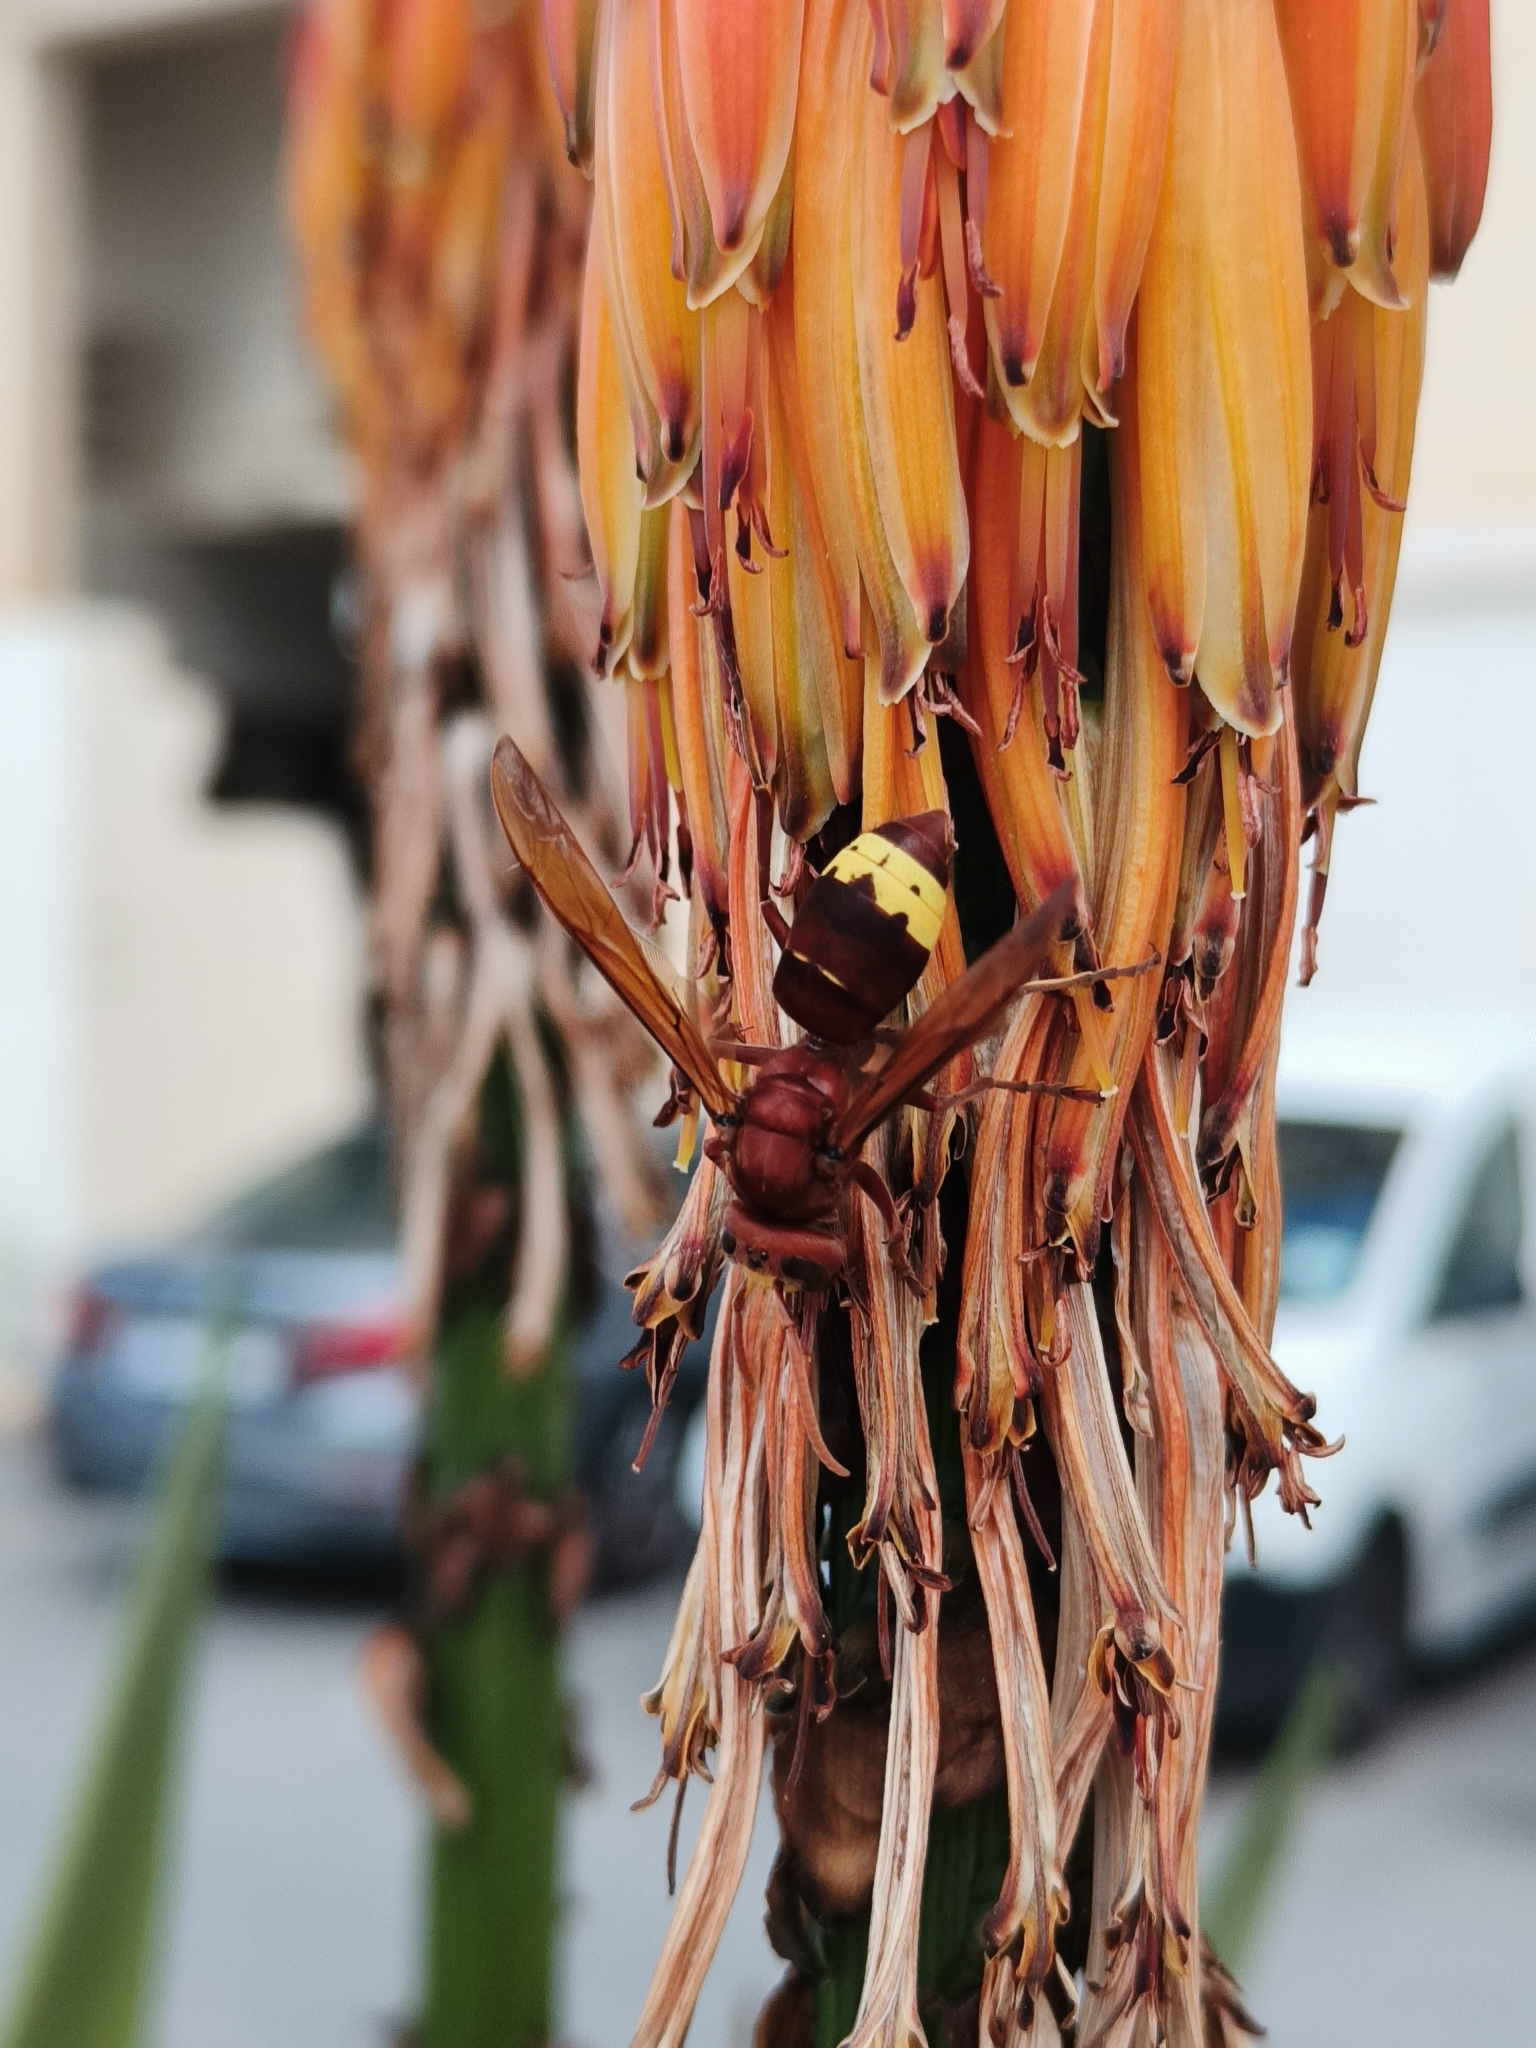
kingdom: Animalia
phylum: Arthropoda
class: Insecta
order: Hymenoptera
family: Vespidae
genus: Vespa
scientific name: Vespa orientalis
